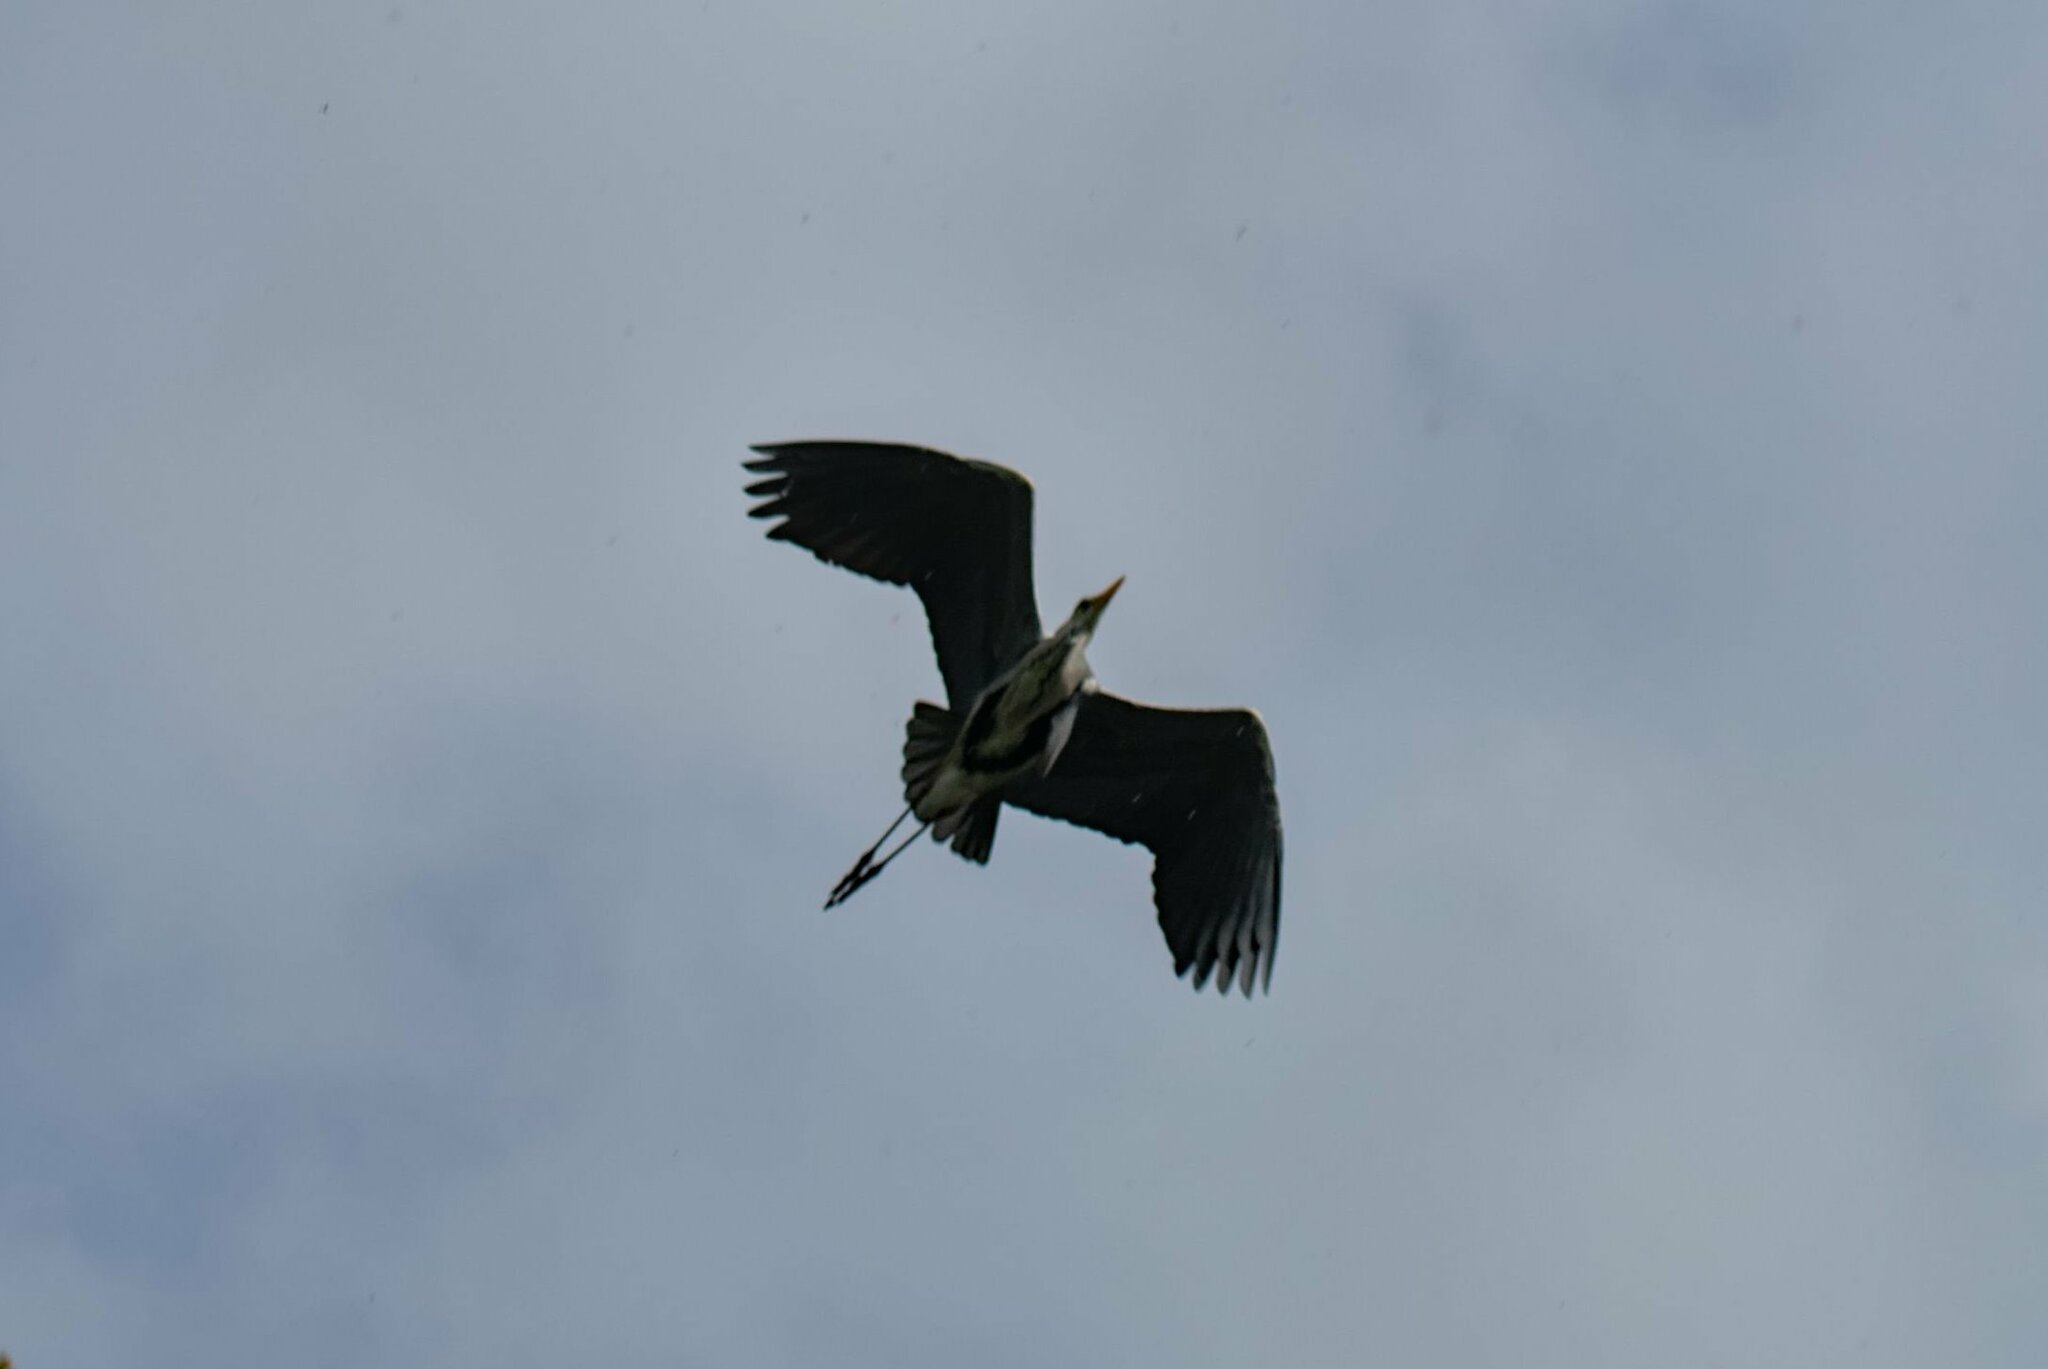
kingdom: Animalia
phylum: Chordata
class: Aves
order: Pelecaniformes
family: Ardeidae
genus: Ardea
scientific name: Ardea cinerea
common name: Grey heron
